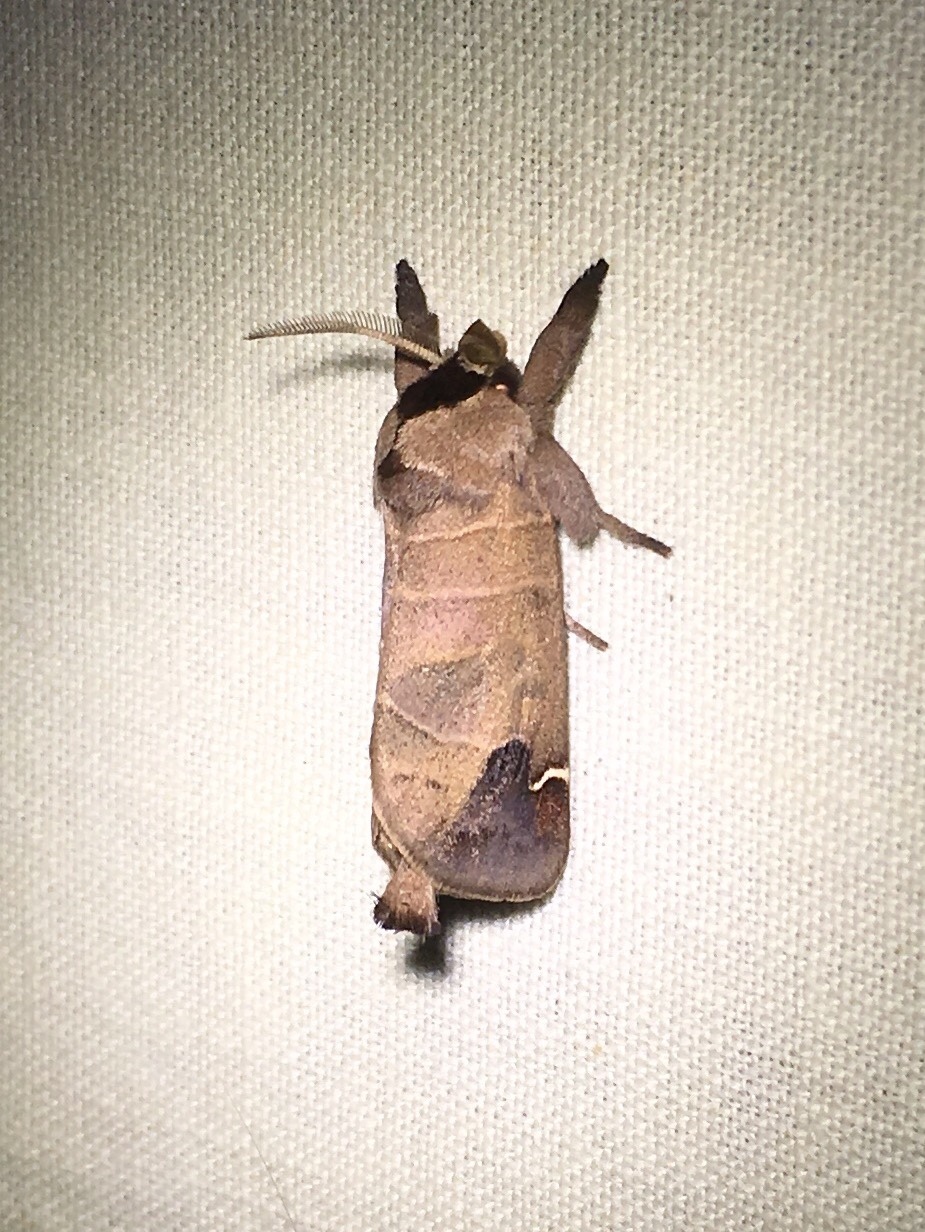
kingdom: Animalia
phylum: Arthropoda
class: Insecta
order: Lepidoptera
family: Notodontidae
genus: Clostera
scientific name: Clostera albosigma
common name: Sigmoid prominent
